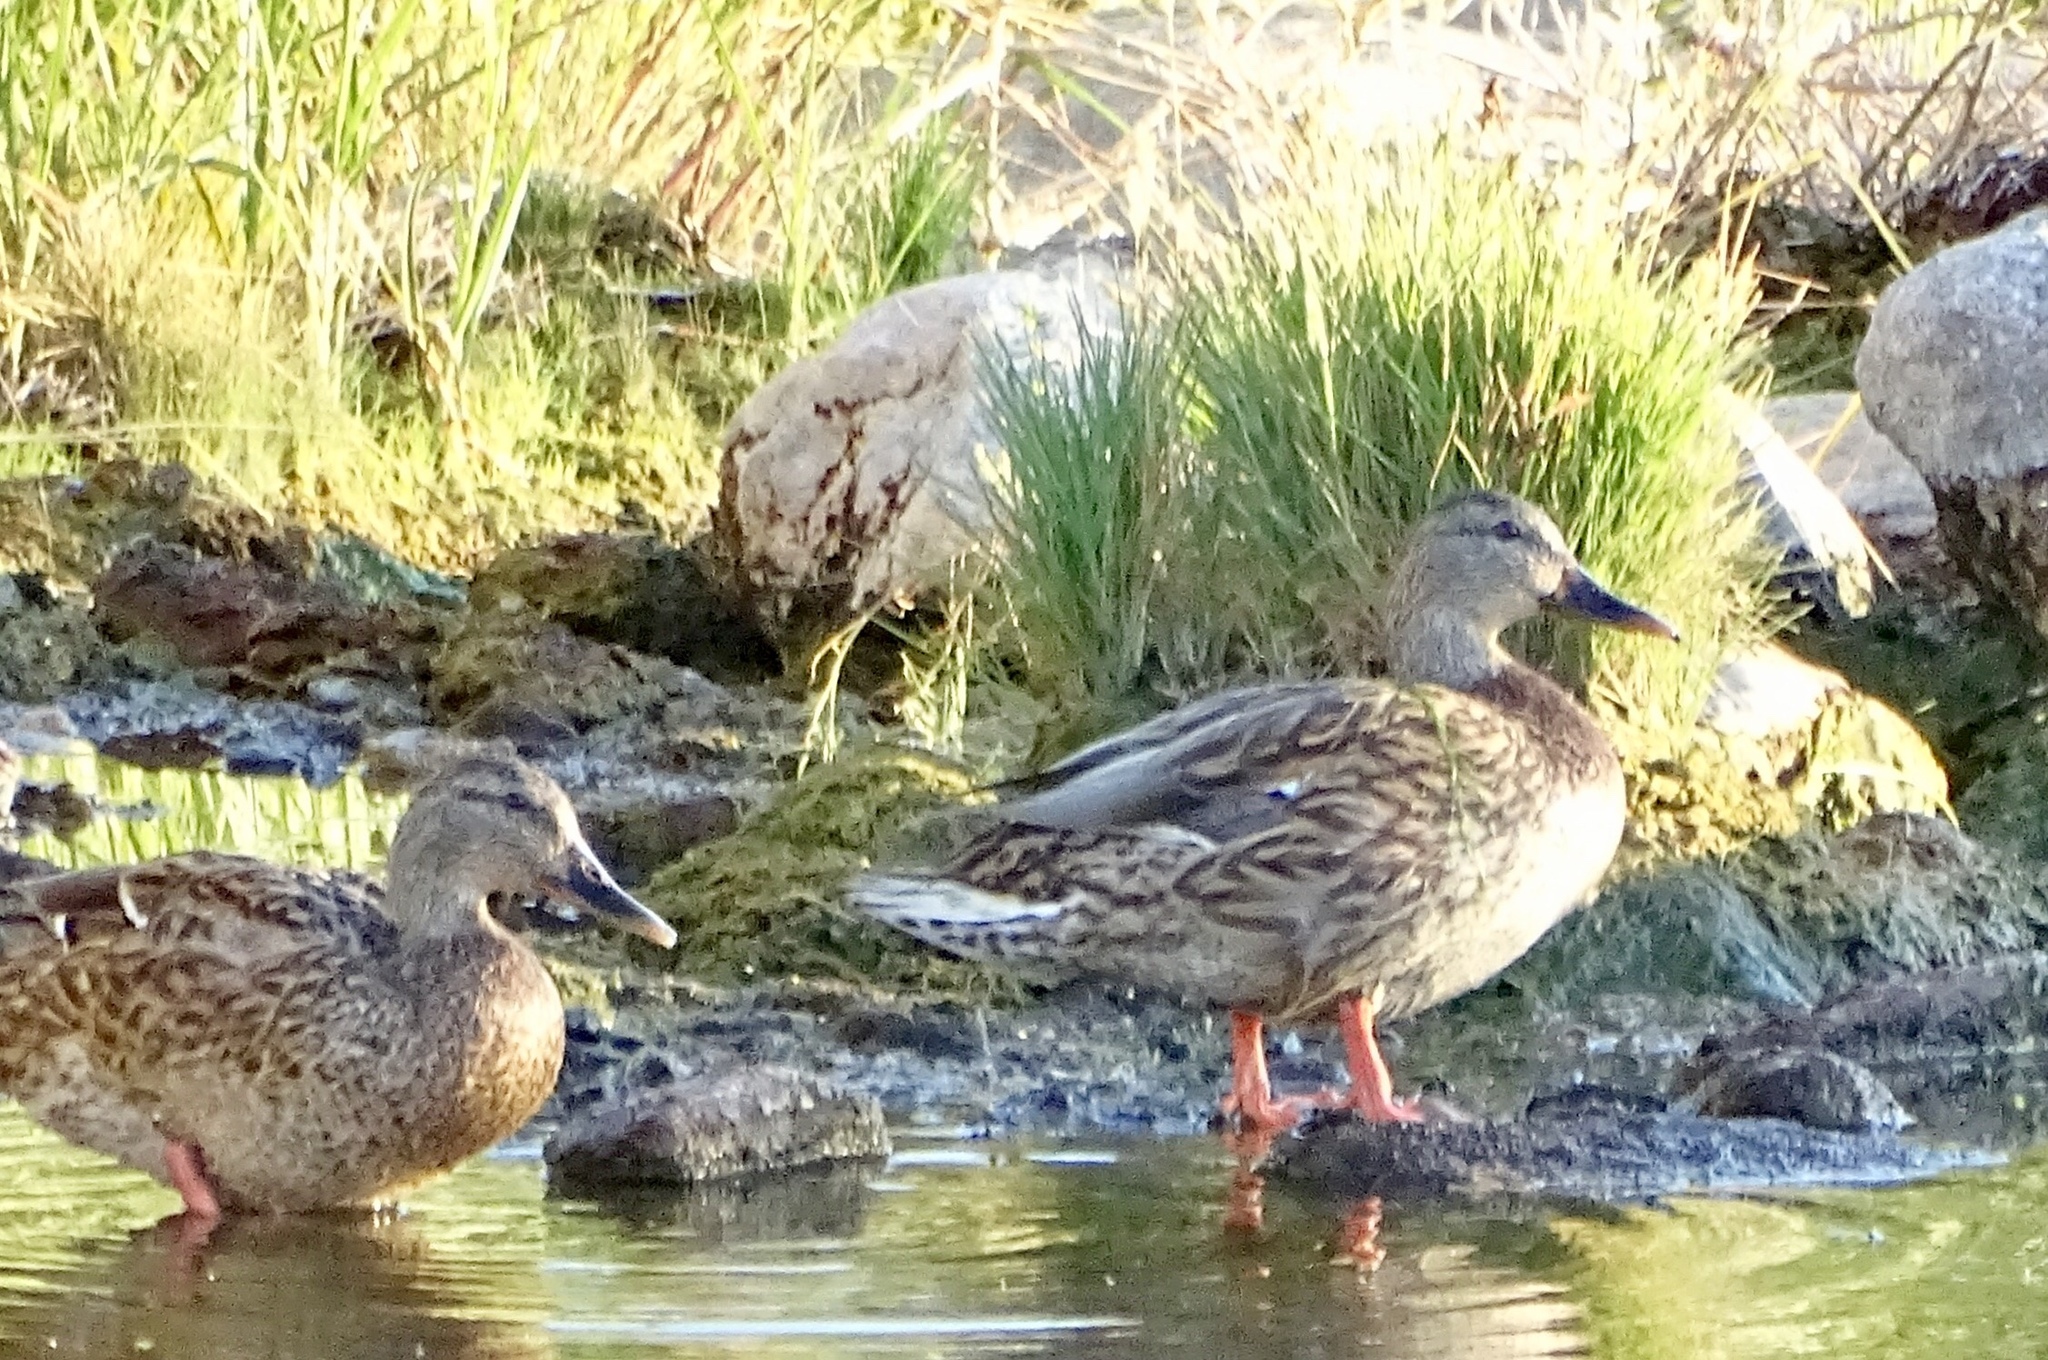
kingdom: Animalia
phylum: Chordata
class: Aves
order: Anseriformes
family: Anatidae
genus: Anas
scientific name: Anas platyrhynchos
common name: Mallard
